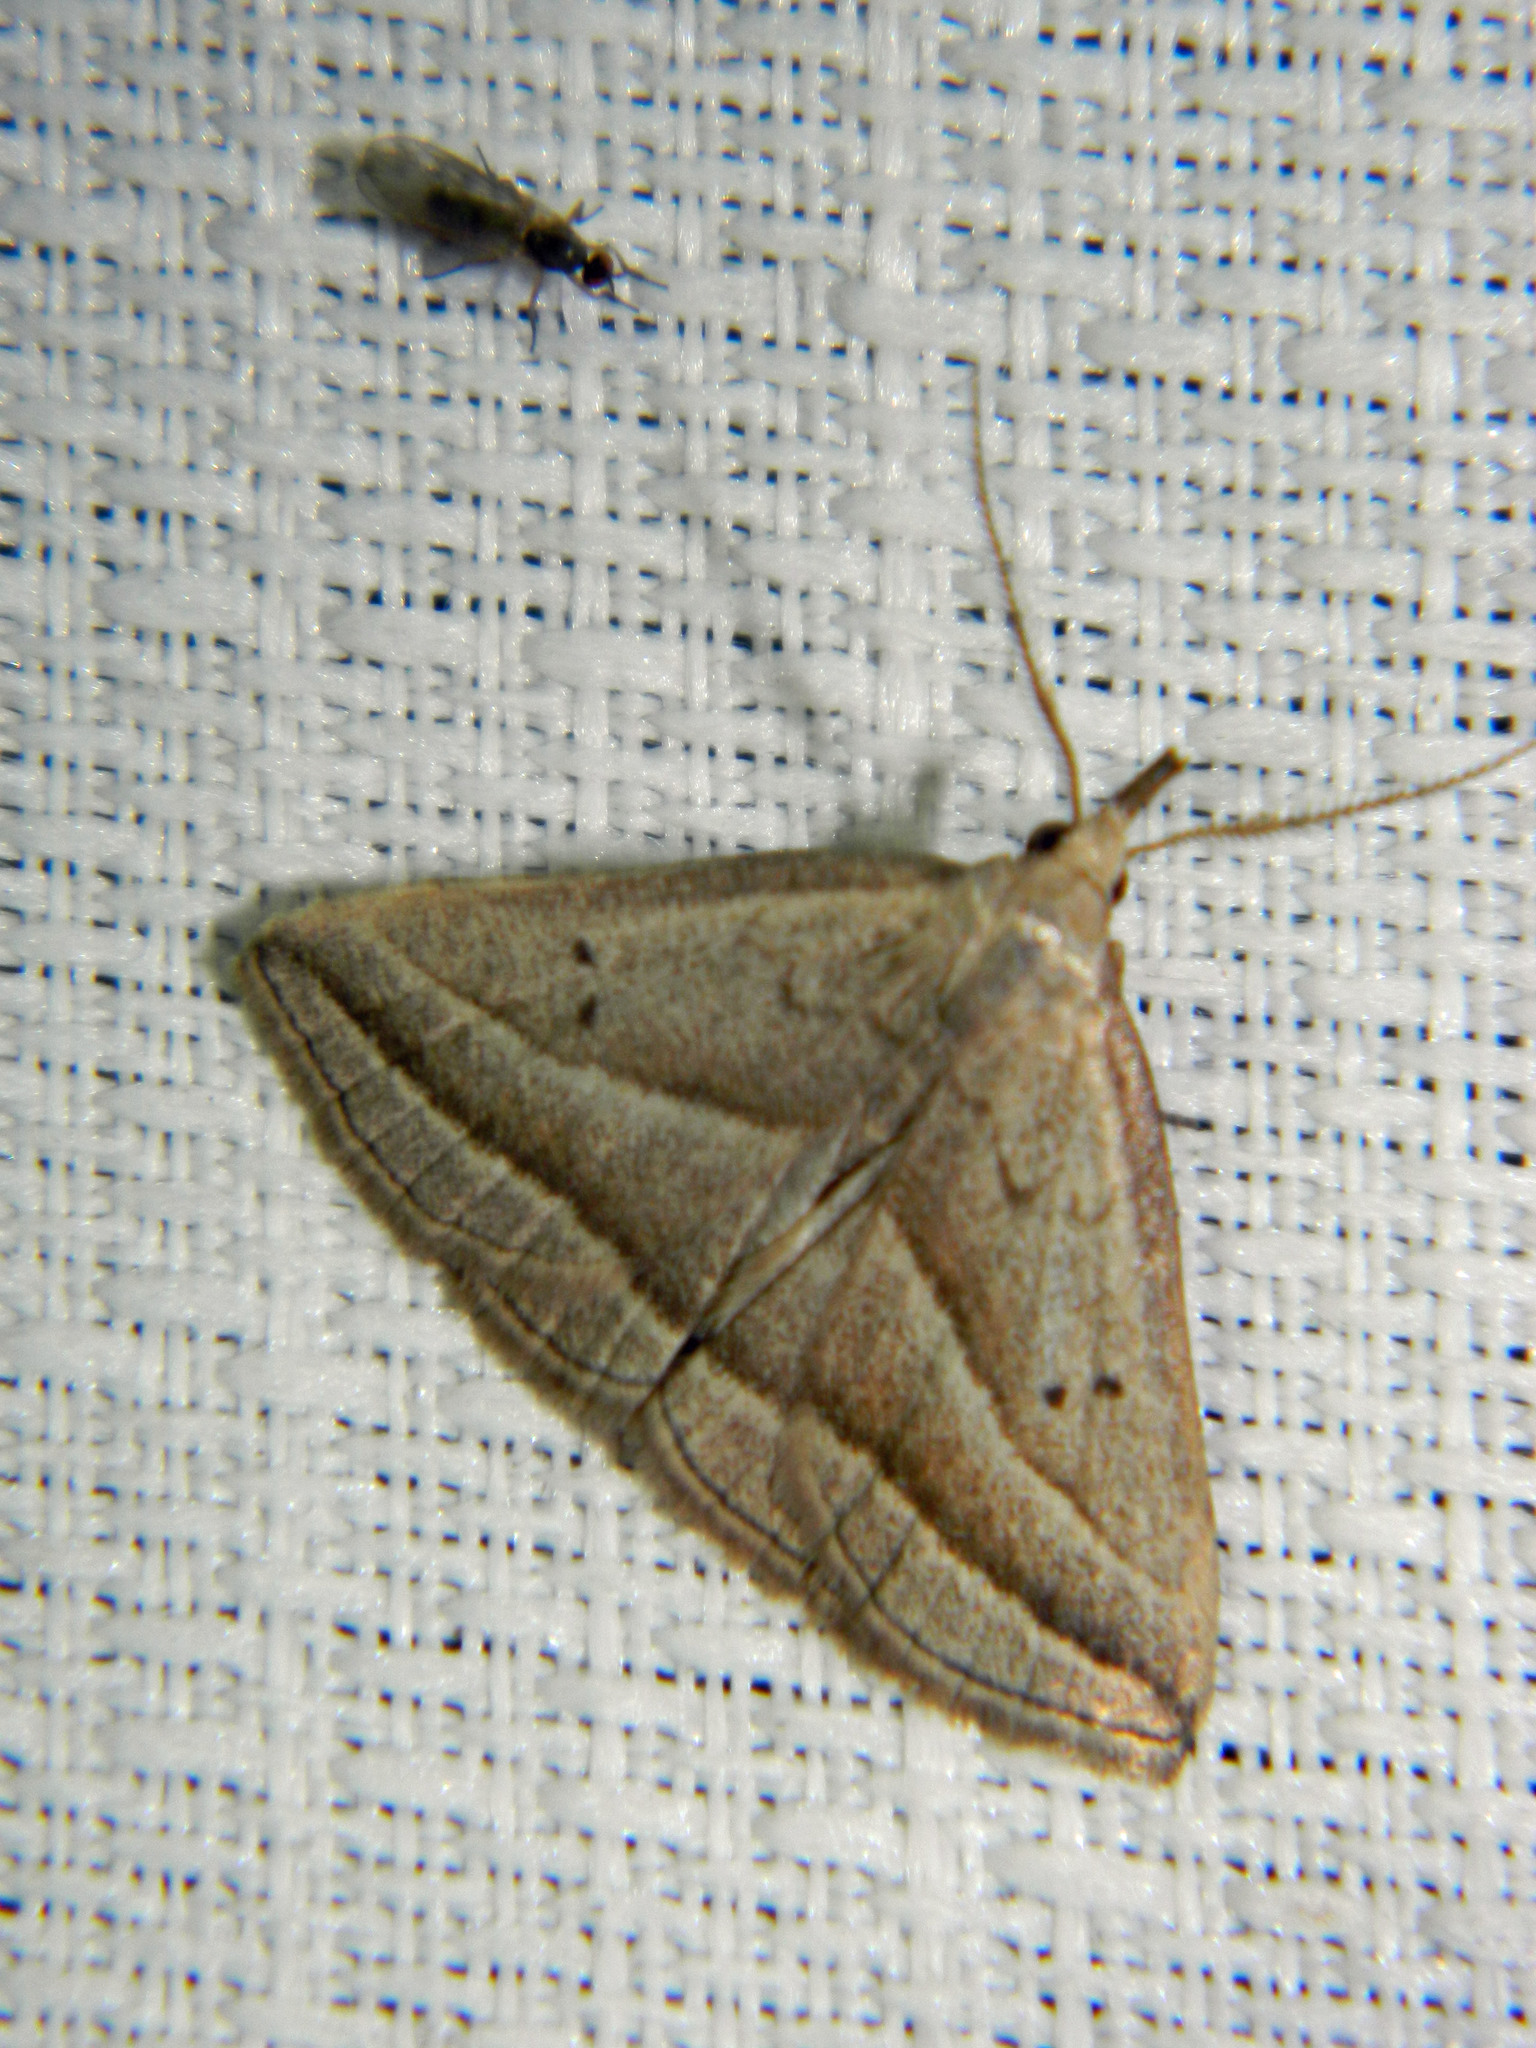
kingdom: Animalia
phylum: Arthropoda
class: Insecta
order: Lepidoptera
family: Erebidae
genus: Macrochilo
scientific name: Macrochilo absorptalis
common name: Slant-lined owlet
